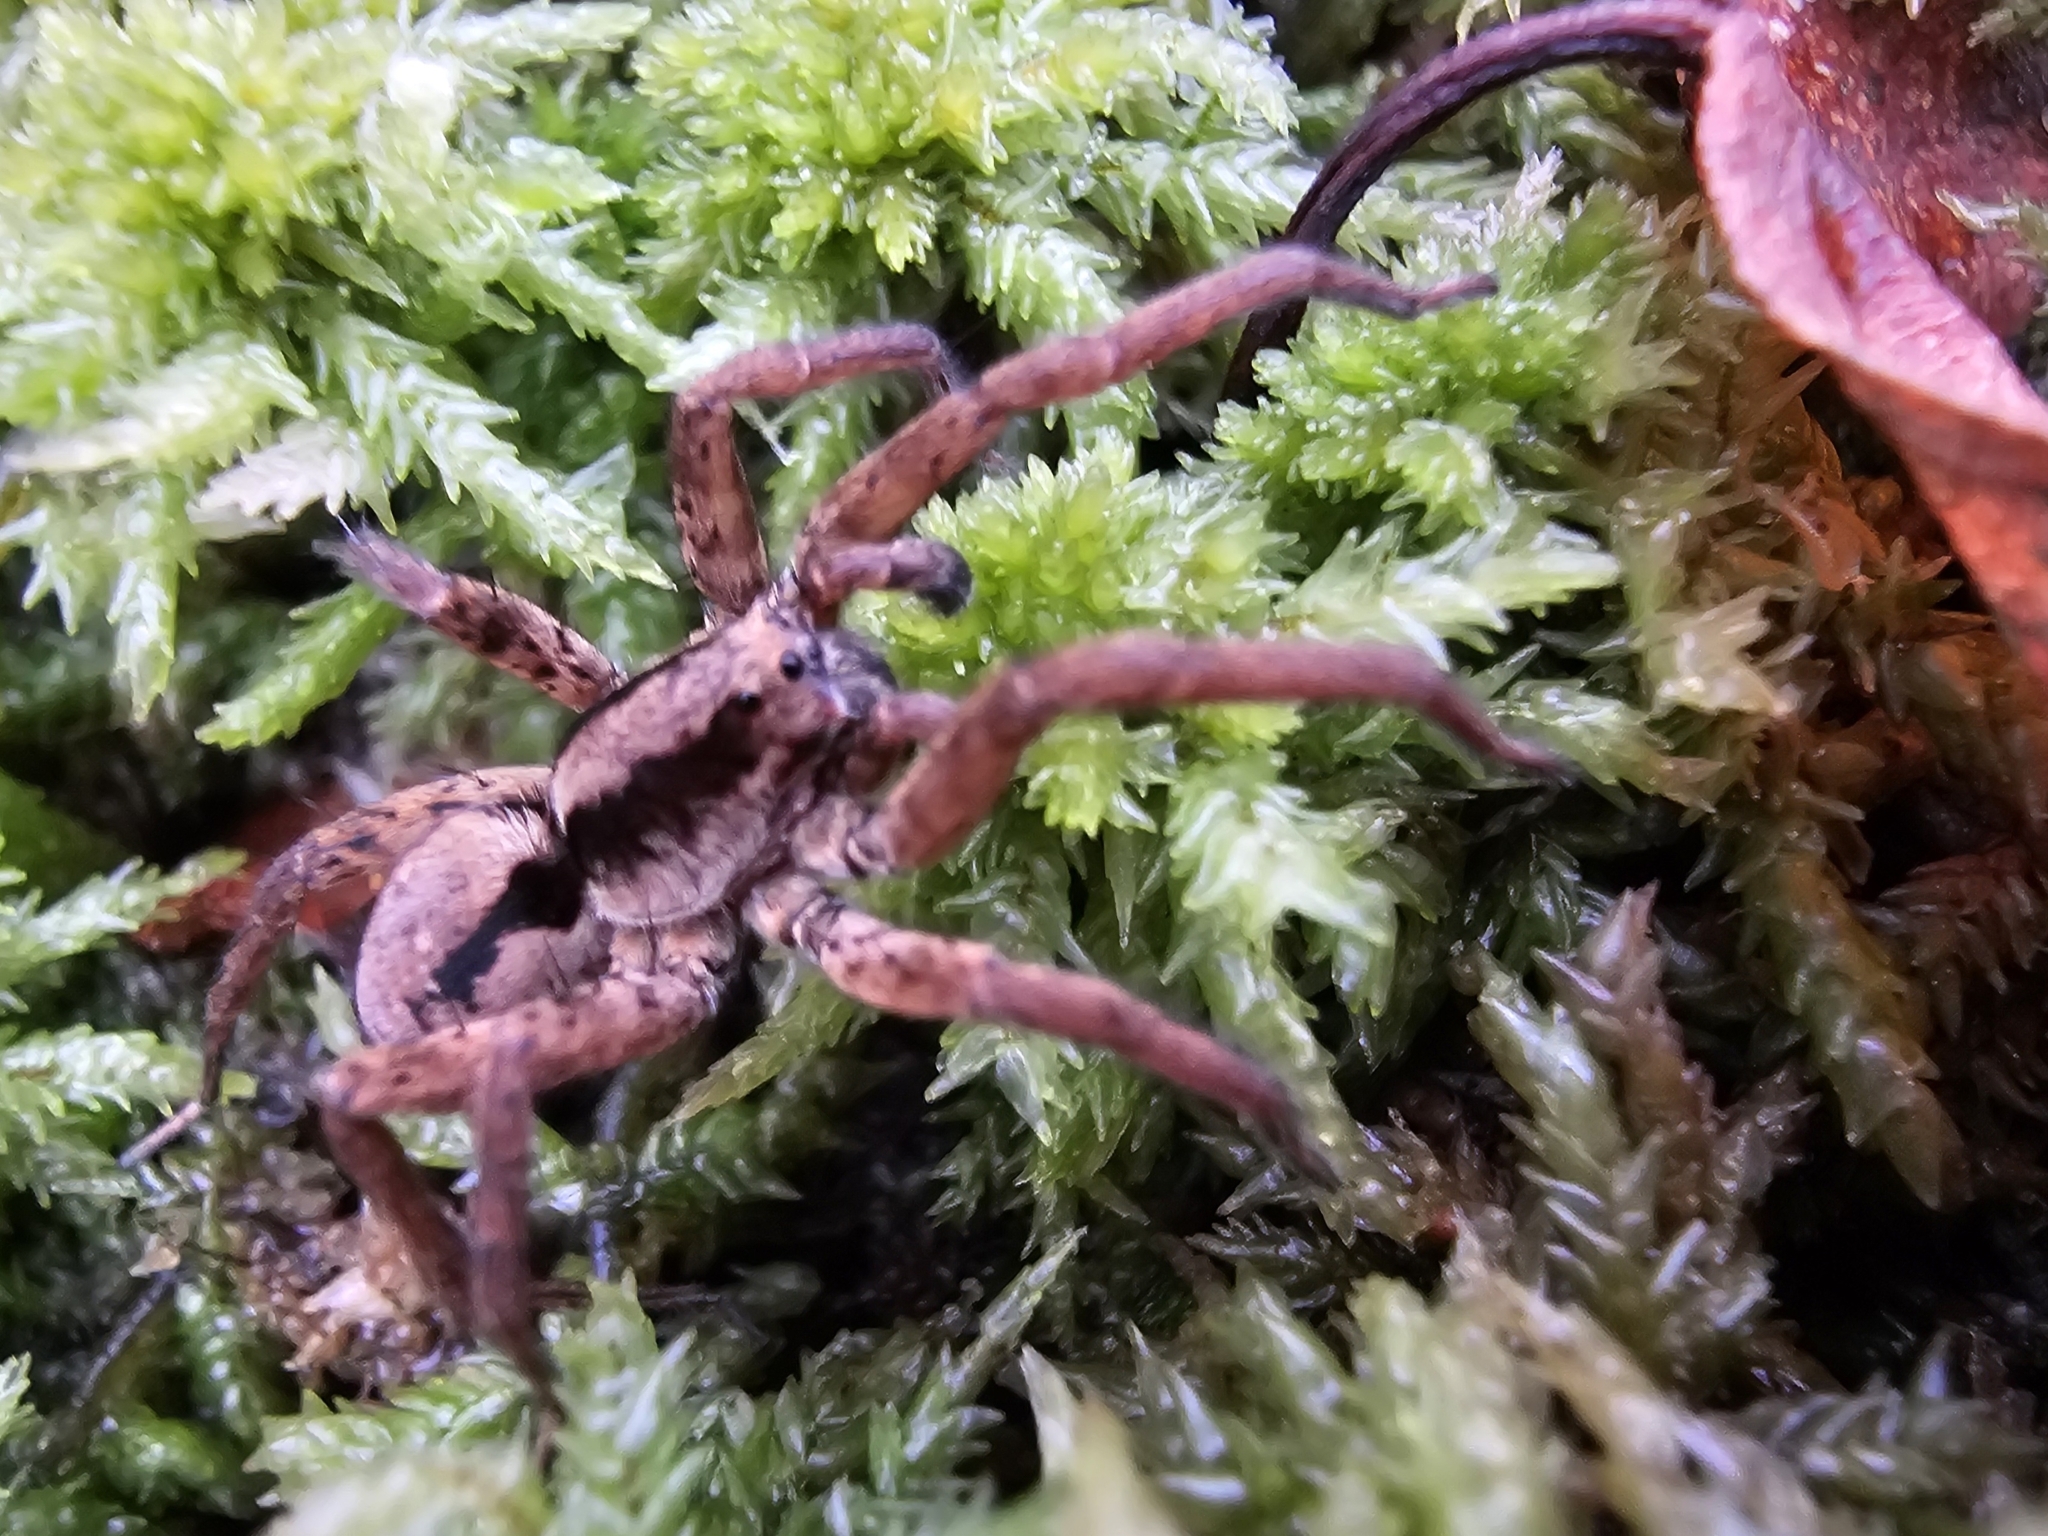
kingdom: Animalia
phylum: Arthropoda
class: Arachnida
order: Araneae
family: Lycosidae
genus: Gladicosa
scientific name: Gladicosa gulosa
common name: Drumming sword wolf spider
